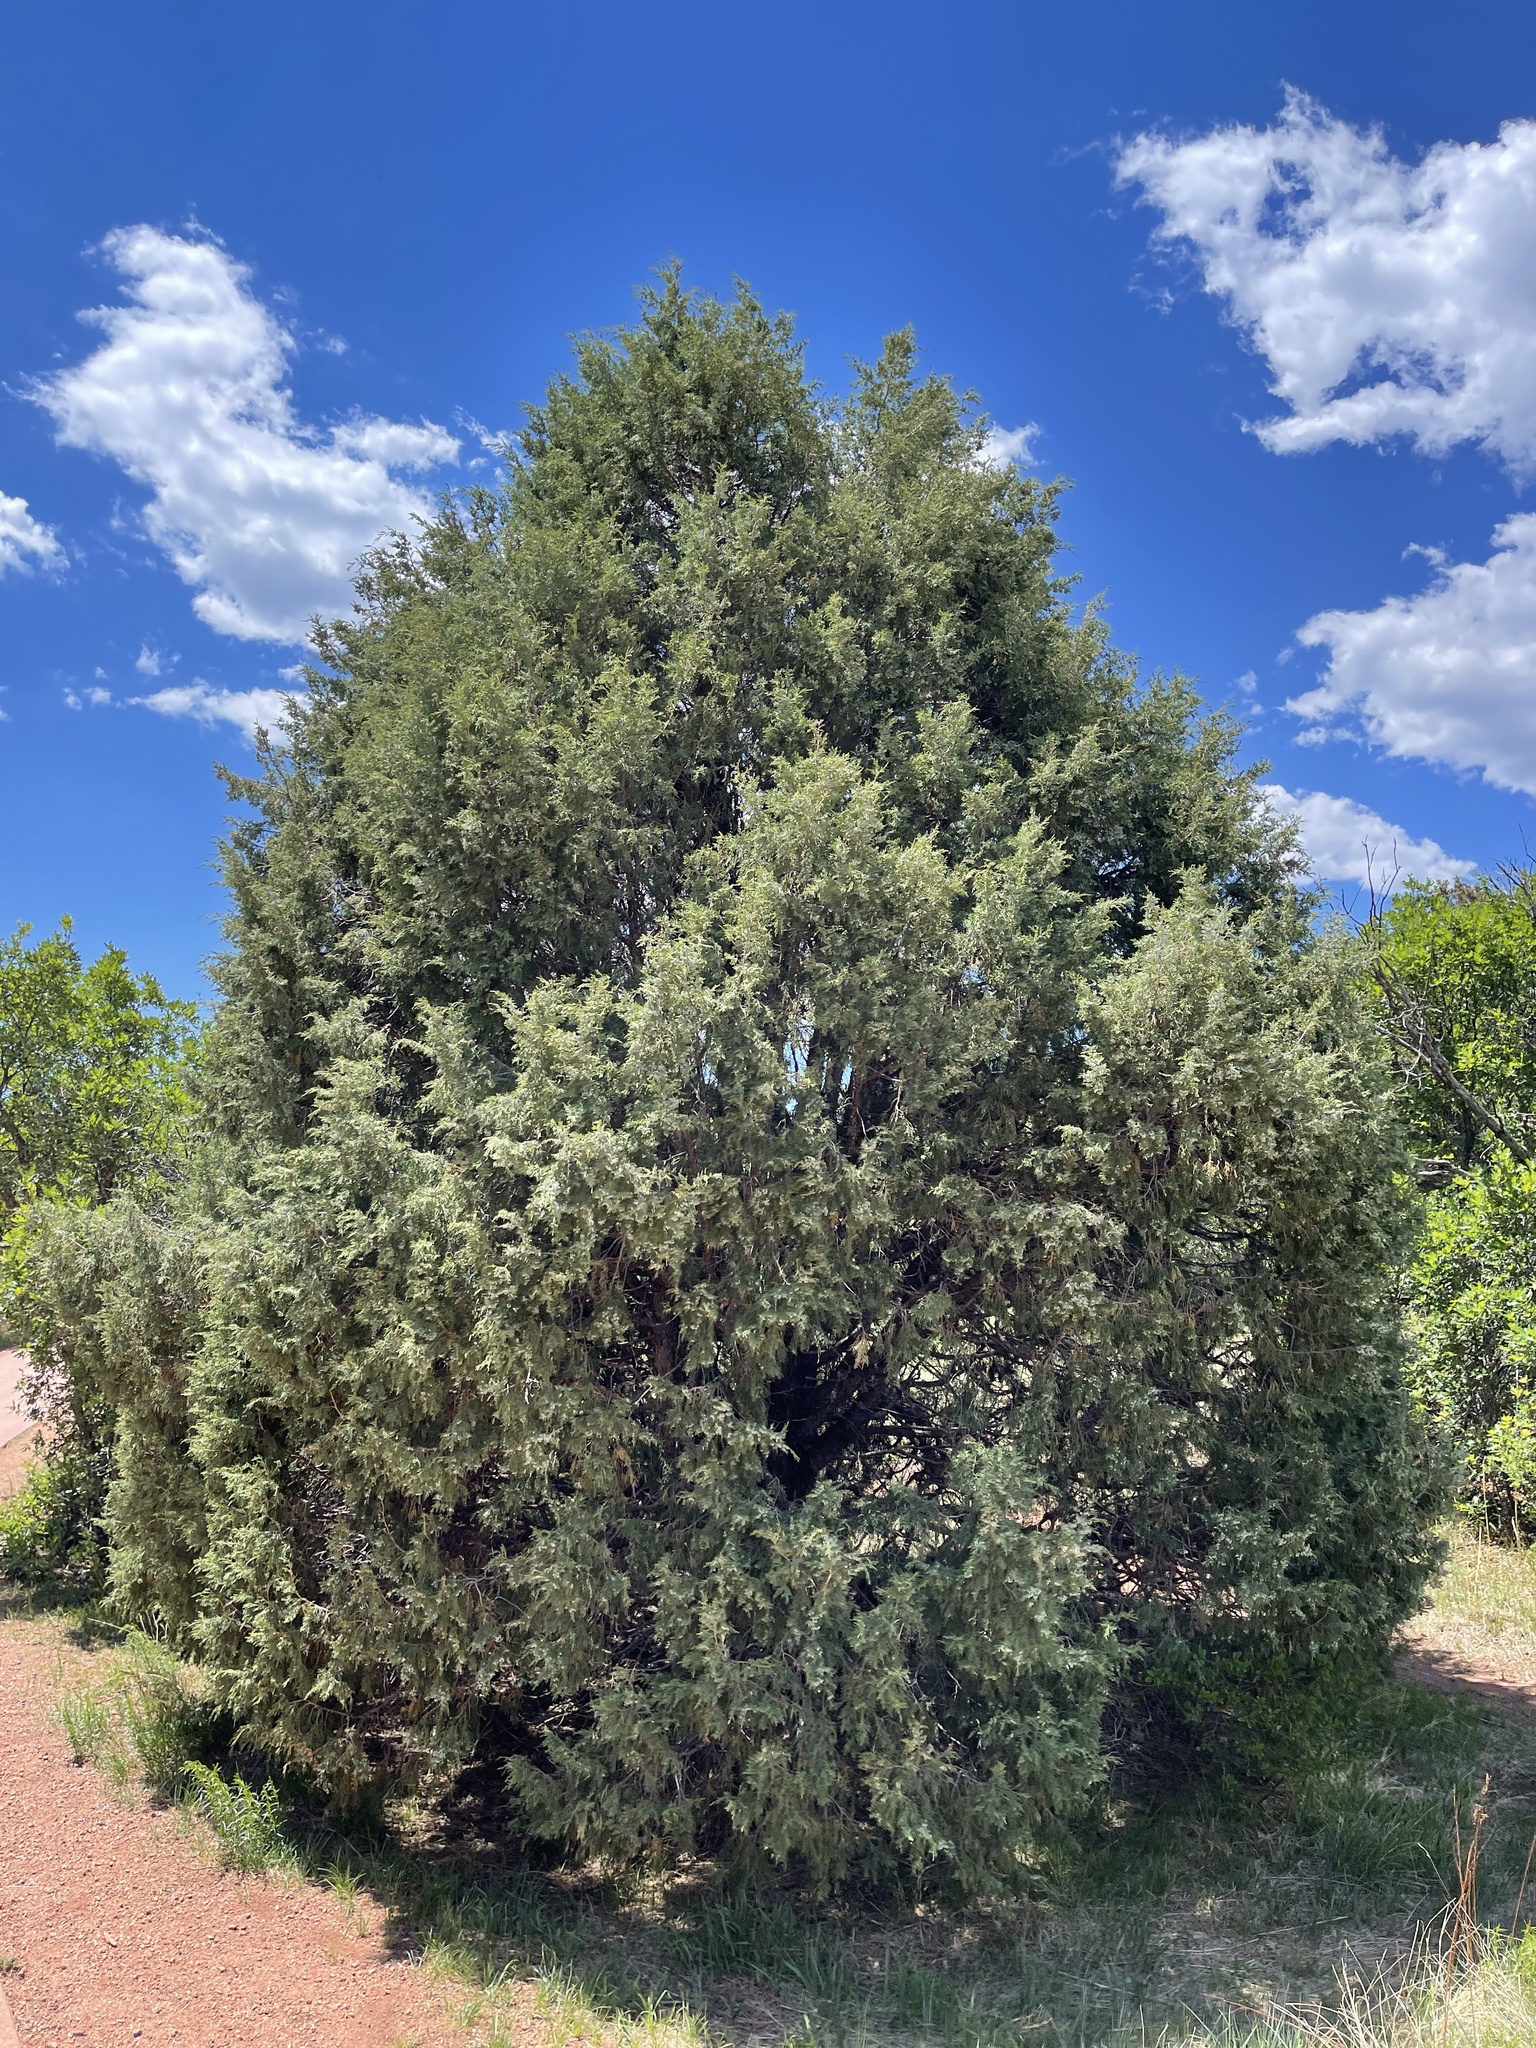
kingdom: Plantae
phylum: Tracheophyta
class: Pinopsida
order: Pinales
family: Cupressaceae
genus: Juniperus
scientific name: Juniperus scopulorum
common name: Rocky mountain juniper
